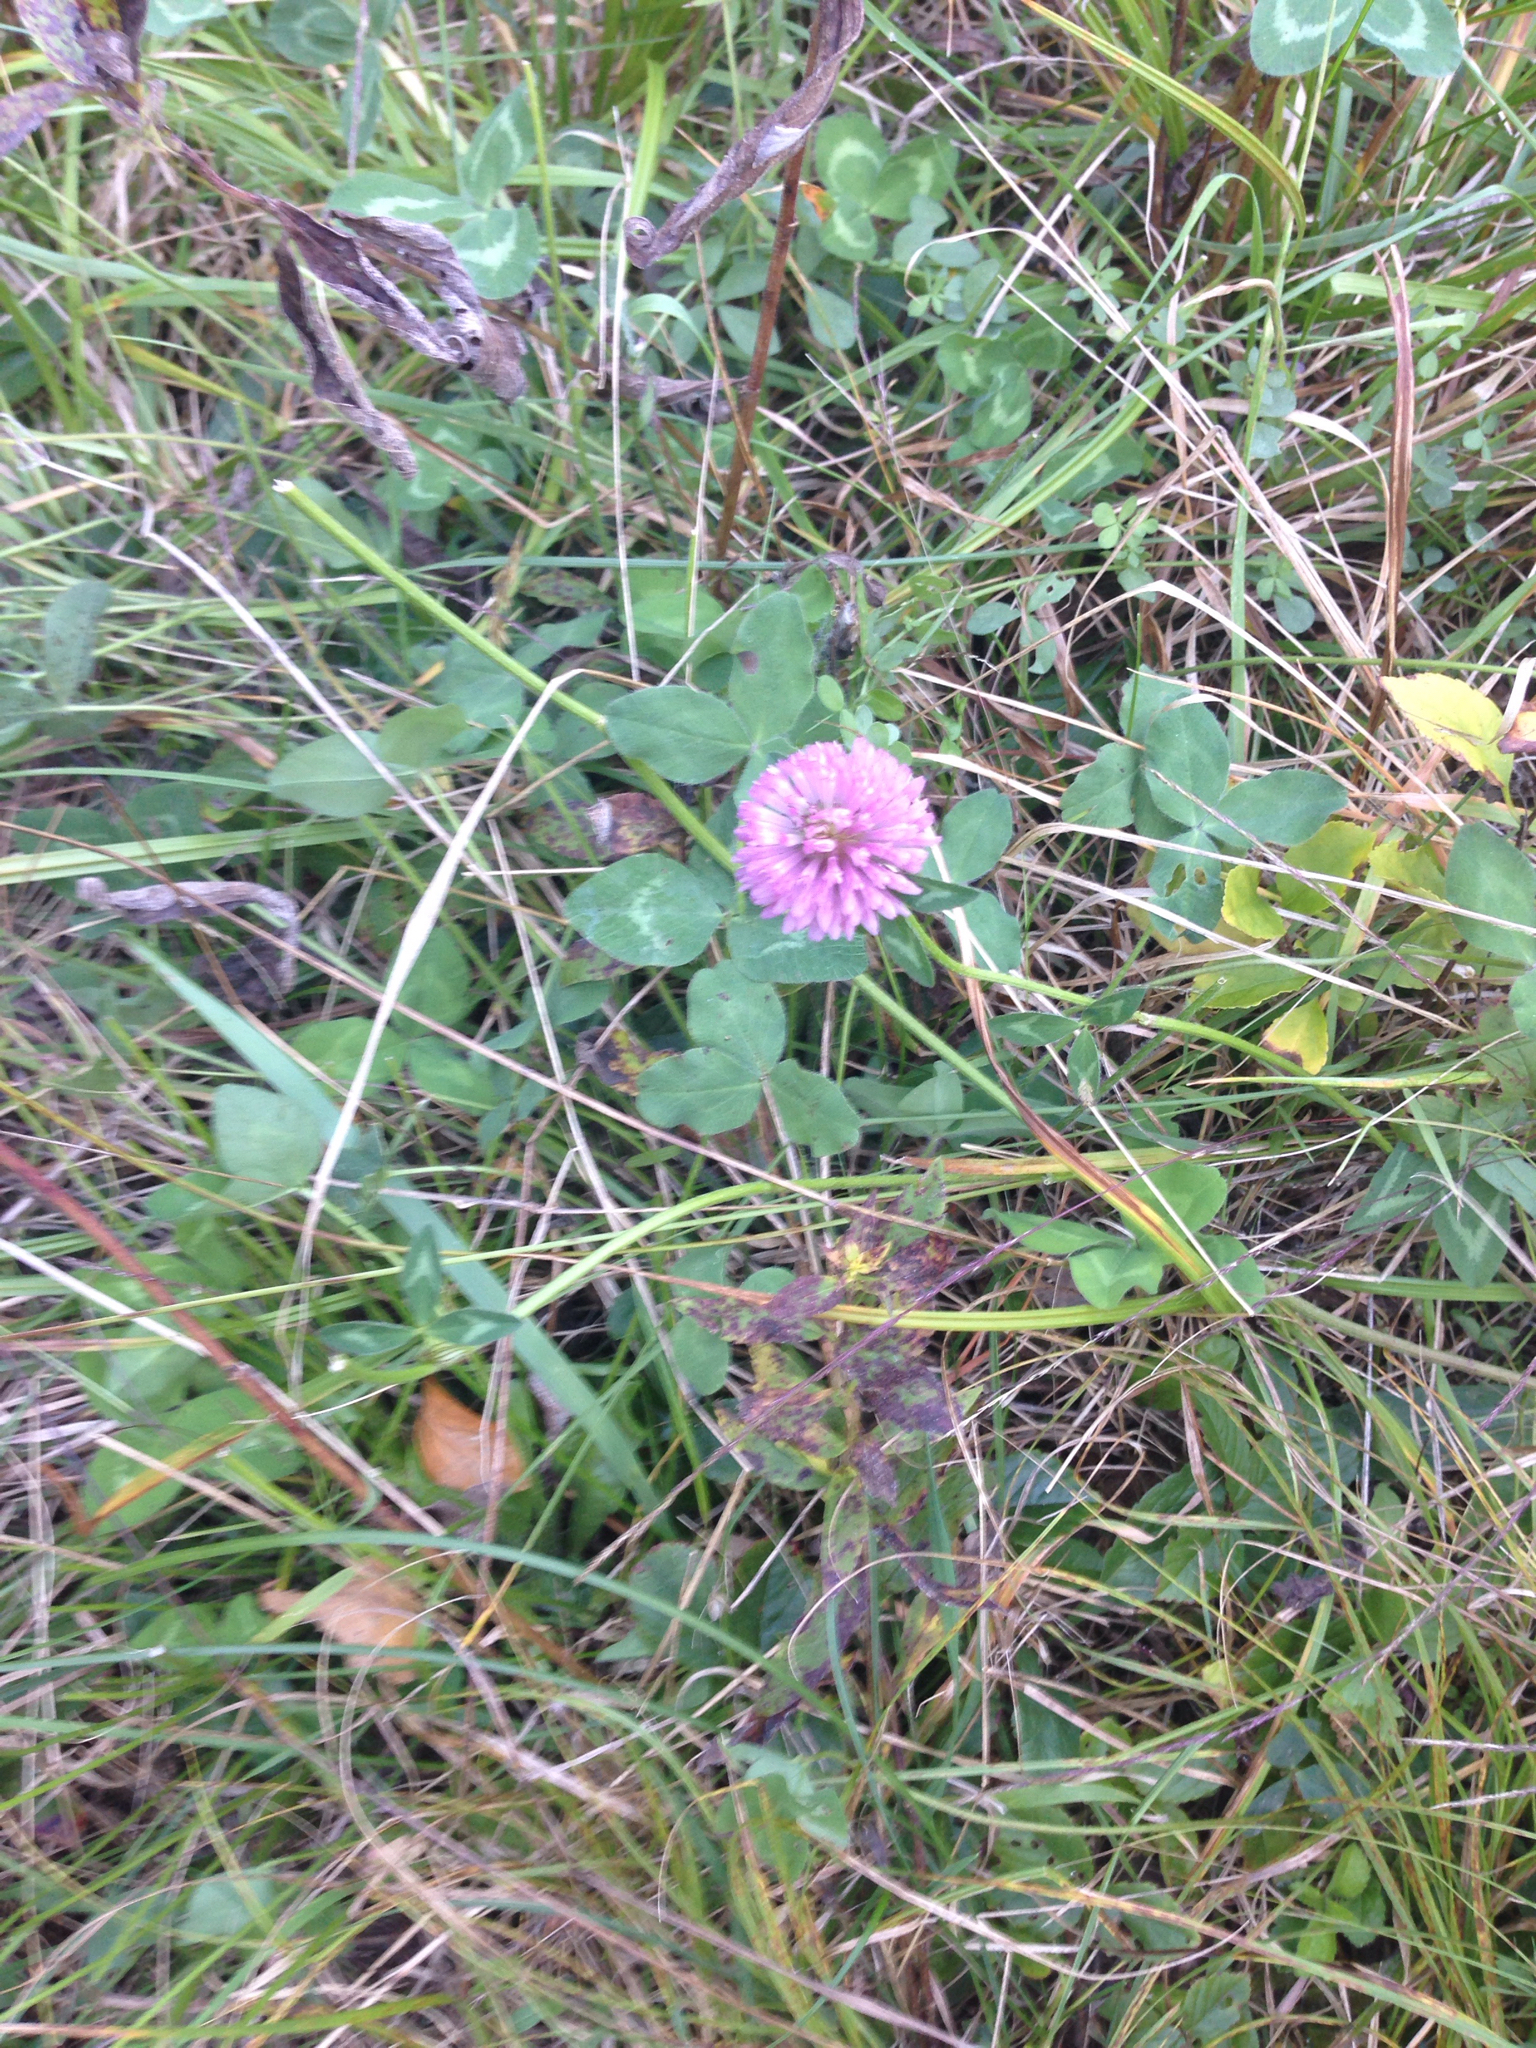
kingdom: Plantae
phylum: Tracheophyta
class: Magnoliopsida
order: Fabales
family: Fabaceae
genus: Trifolium
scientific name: Trifolium pratense
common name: Red clover
